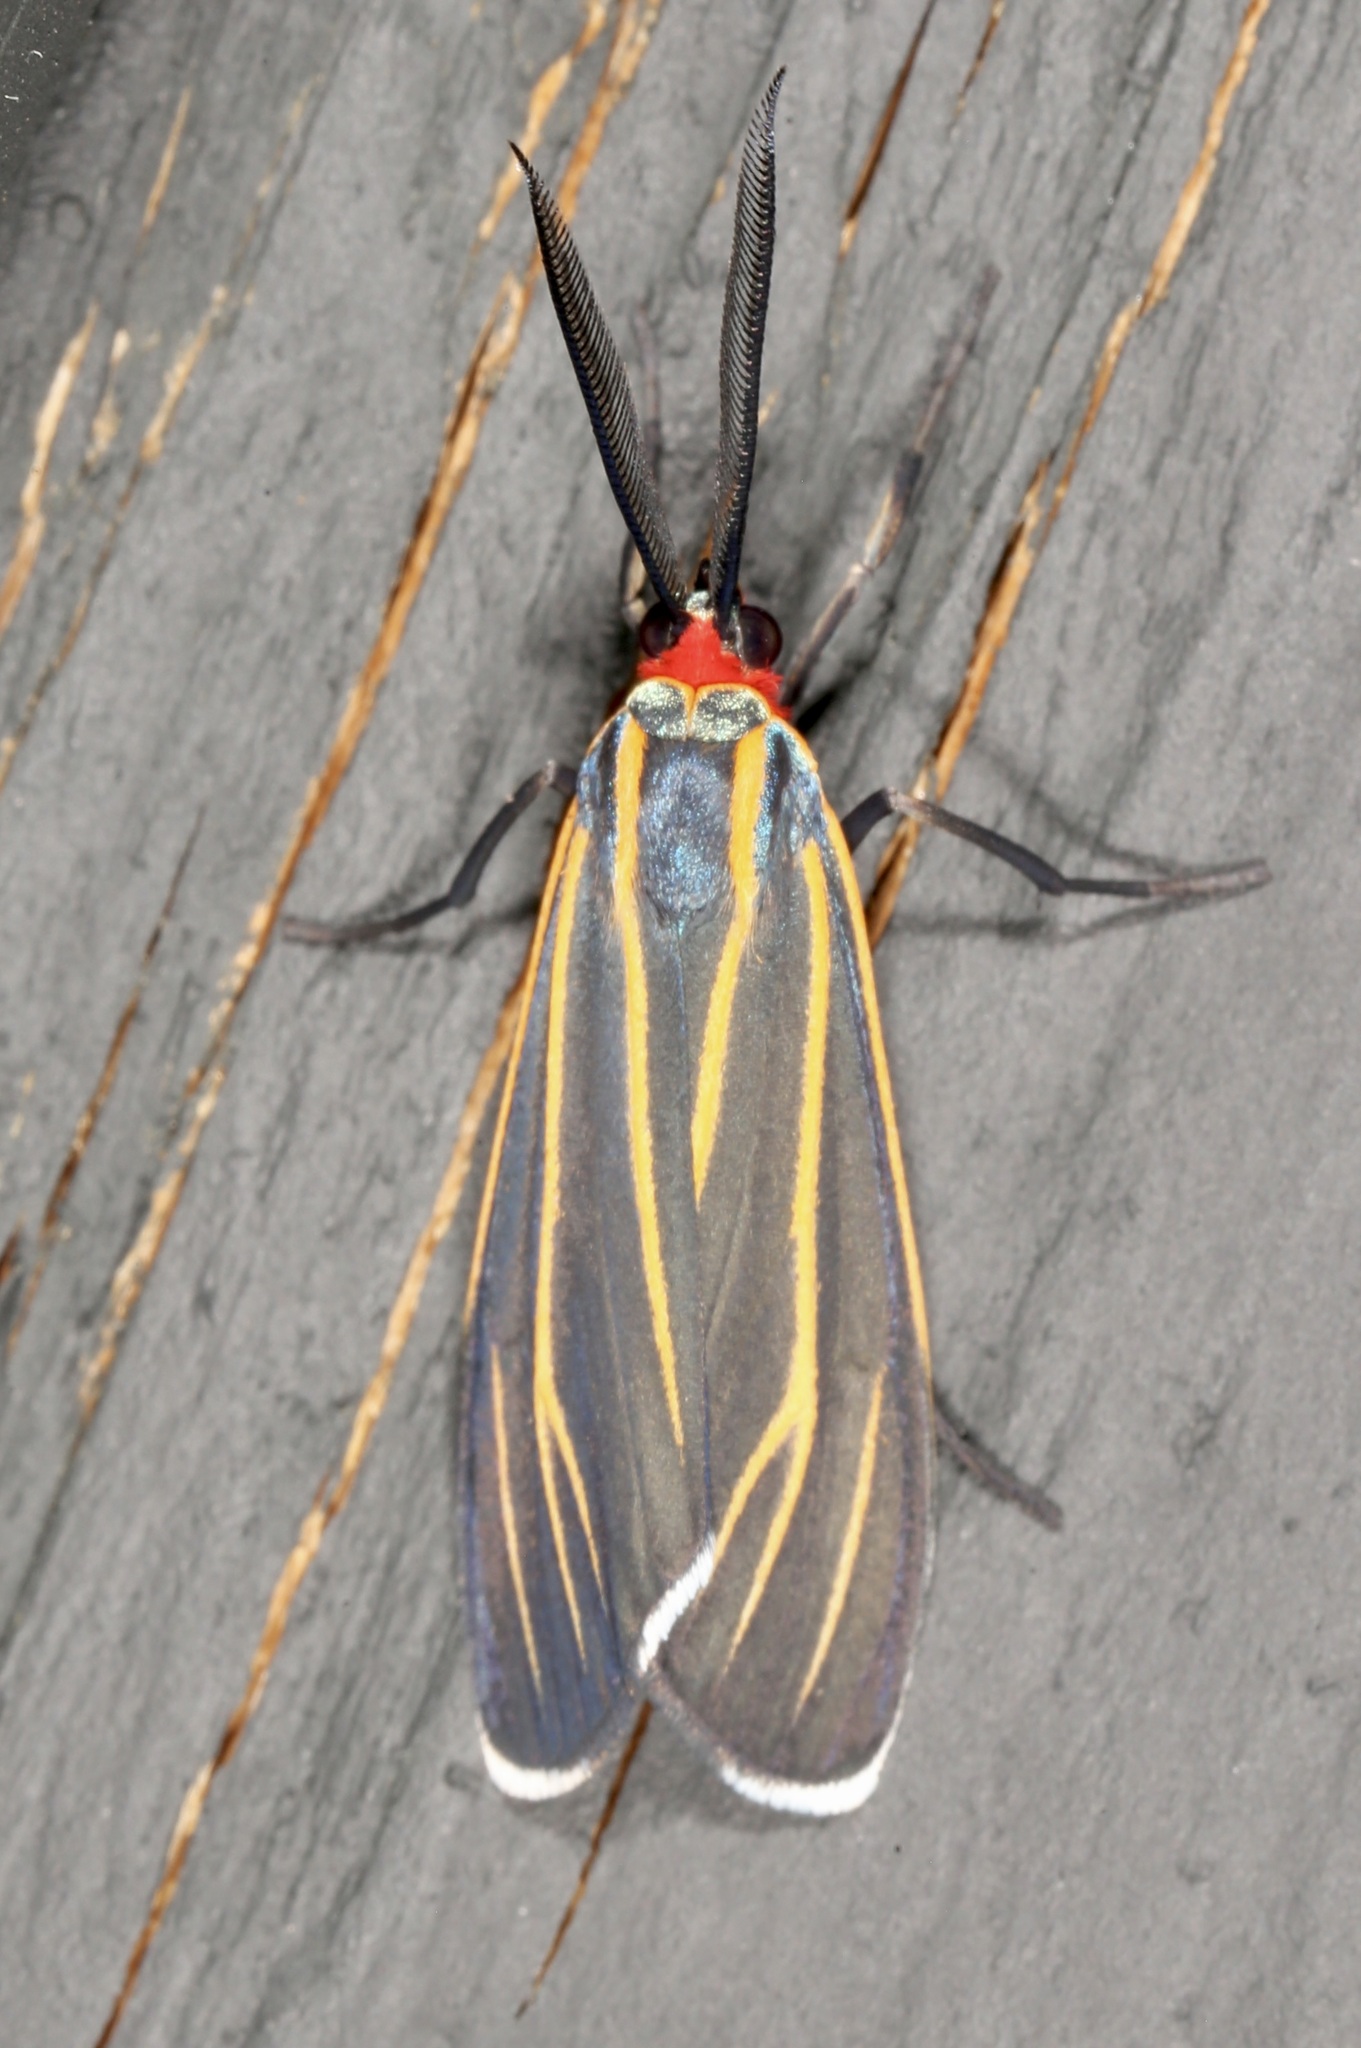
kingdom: Animalia
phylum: Arthropoda
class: Insecta
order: Lepidoptera
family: Erebidae
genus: Ctenucha
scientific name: Ctenucha venosa
